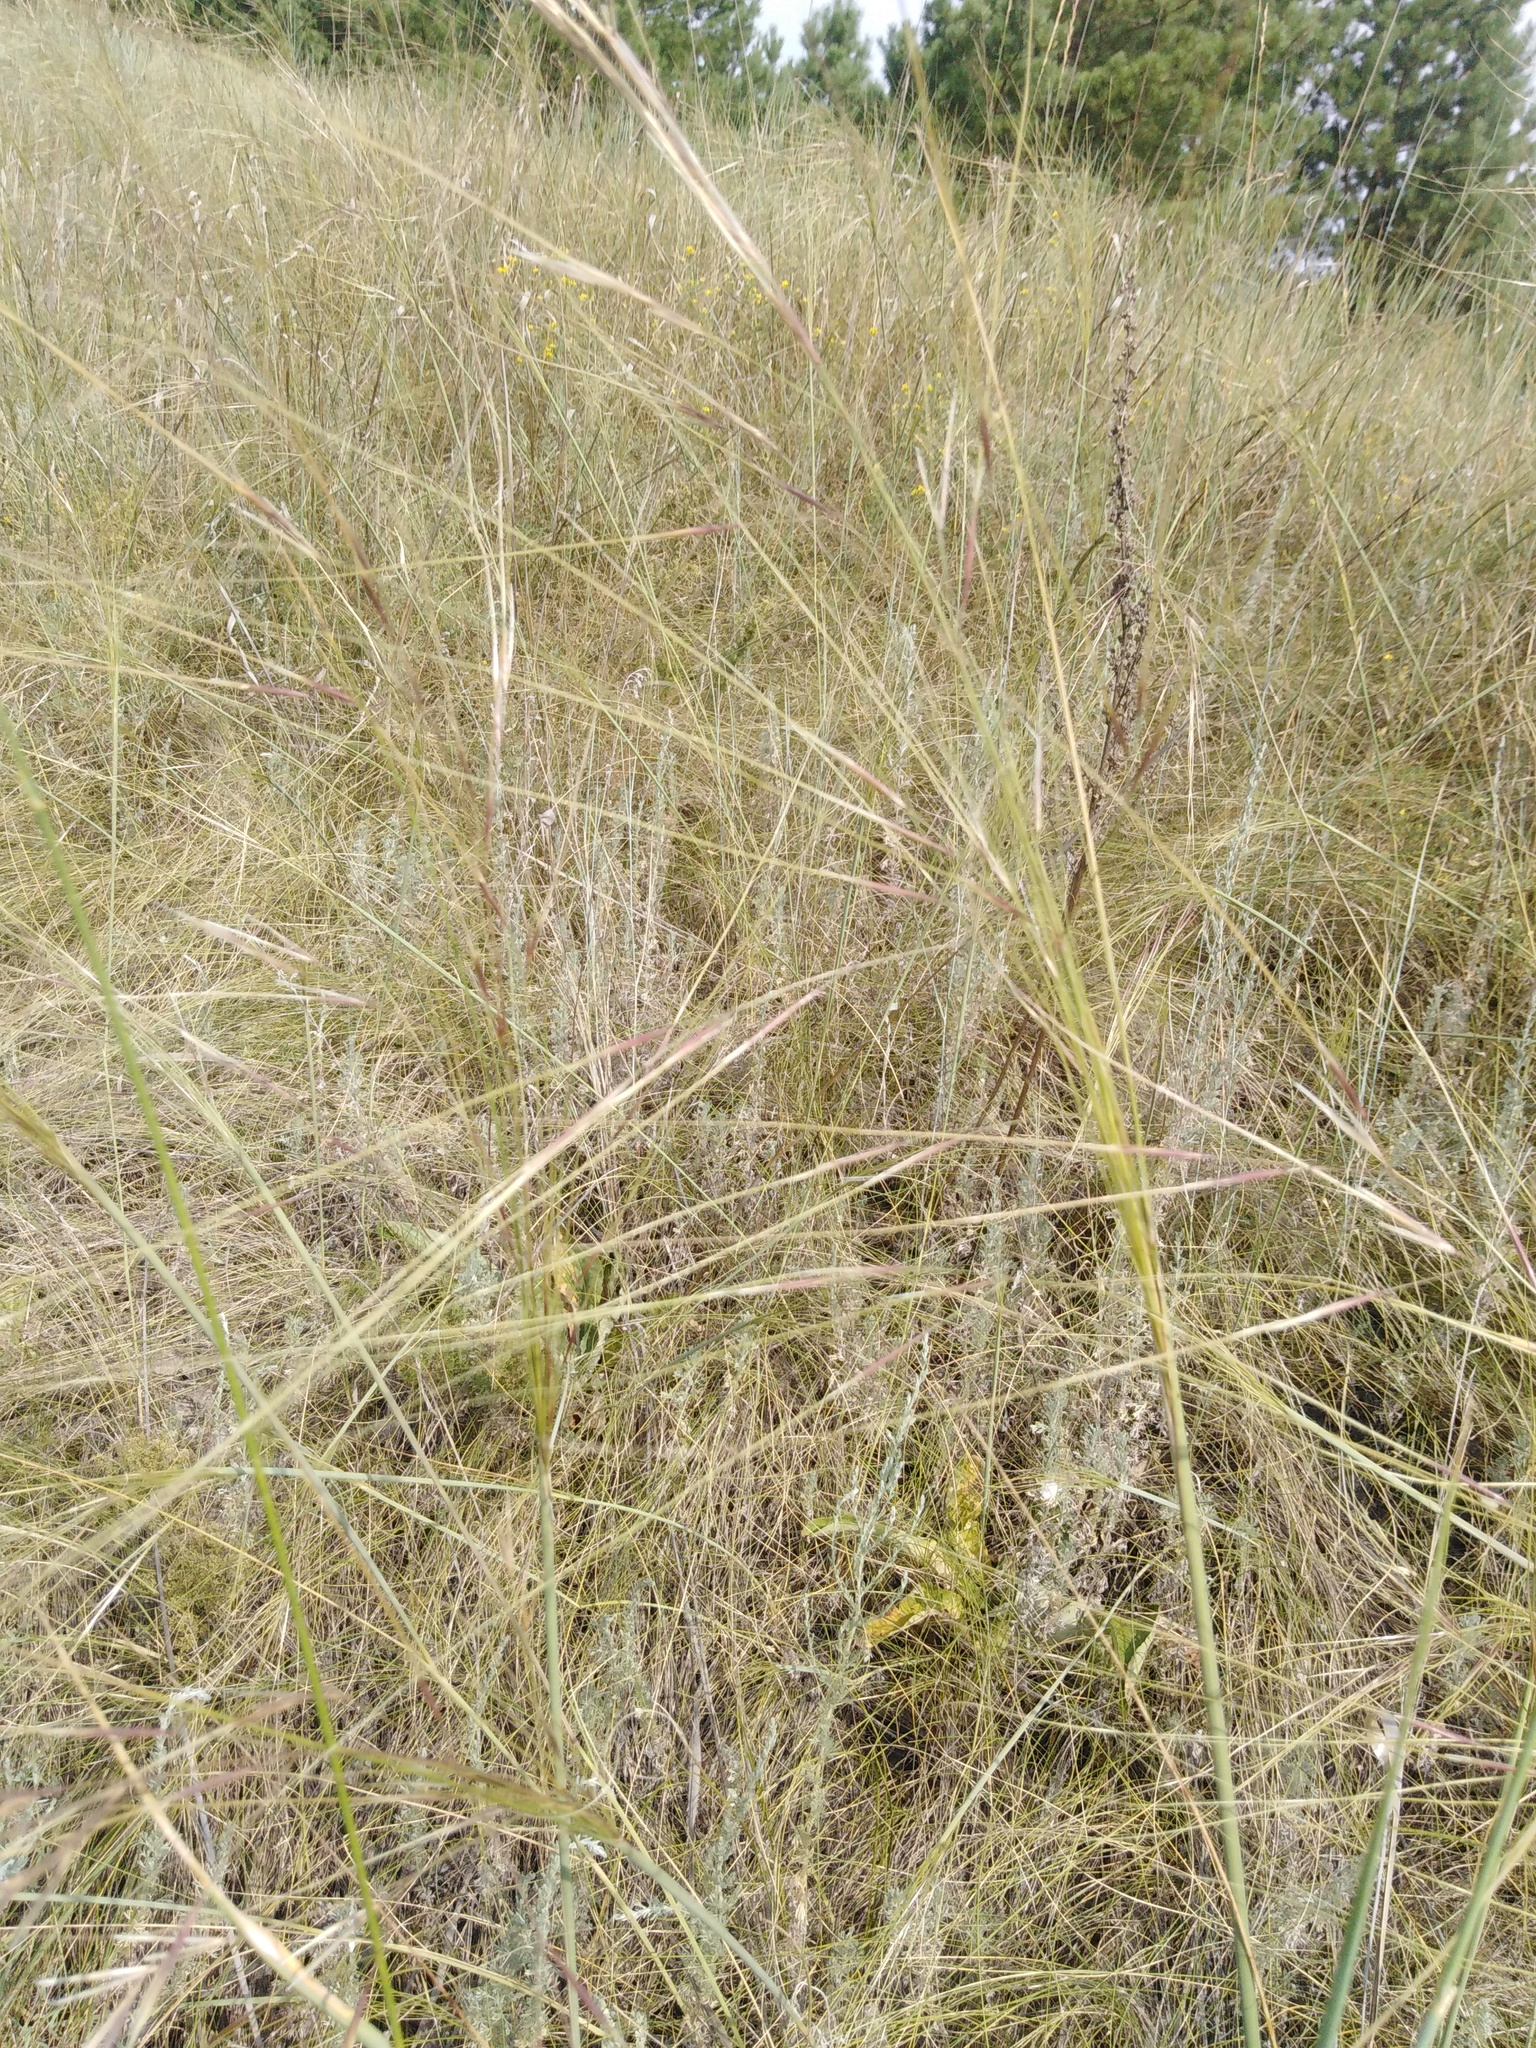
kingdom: Plantae
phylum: Tracheophyta
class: Liliopsida
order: Poales
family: Poaceae
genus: Stipa
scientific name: Stipa capillata
